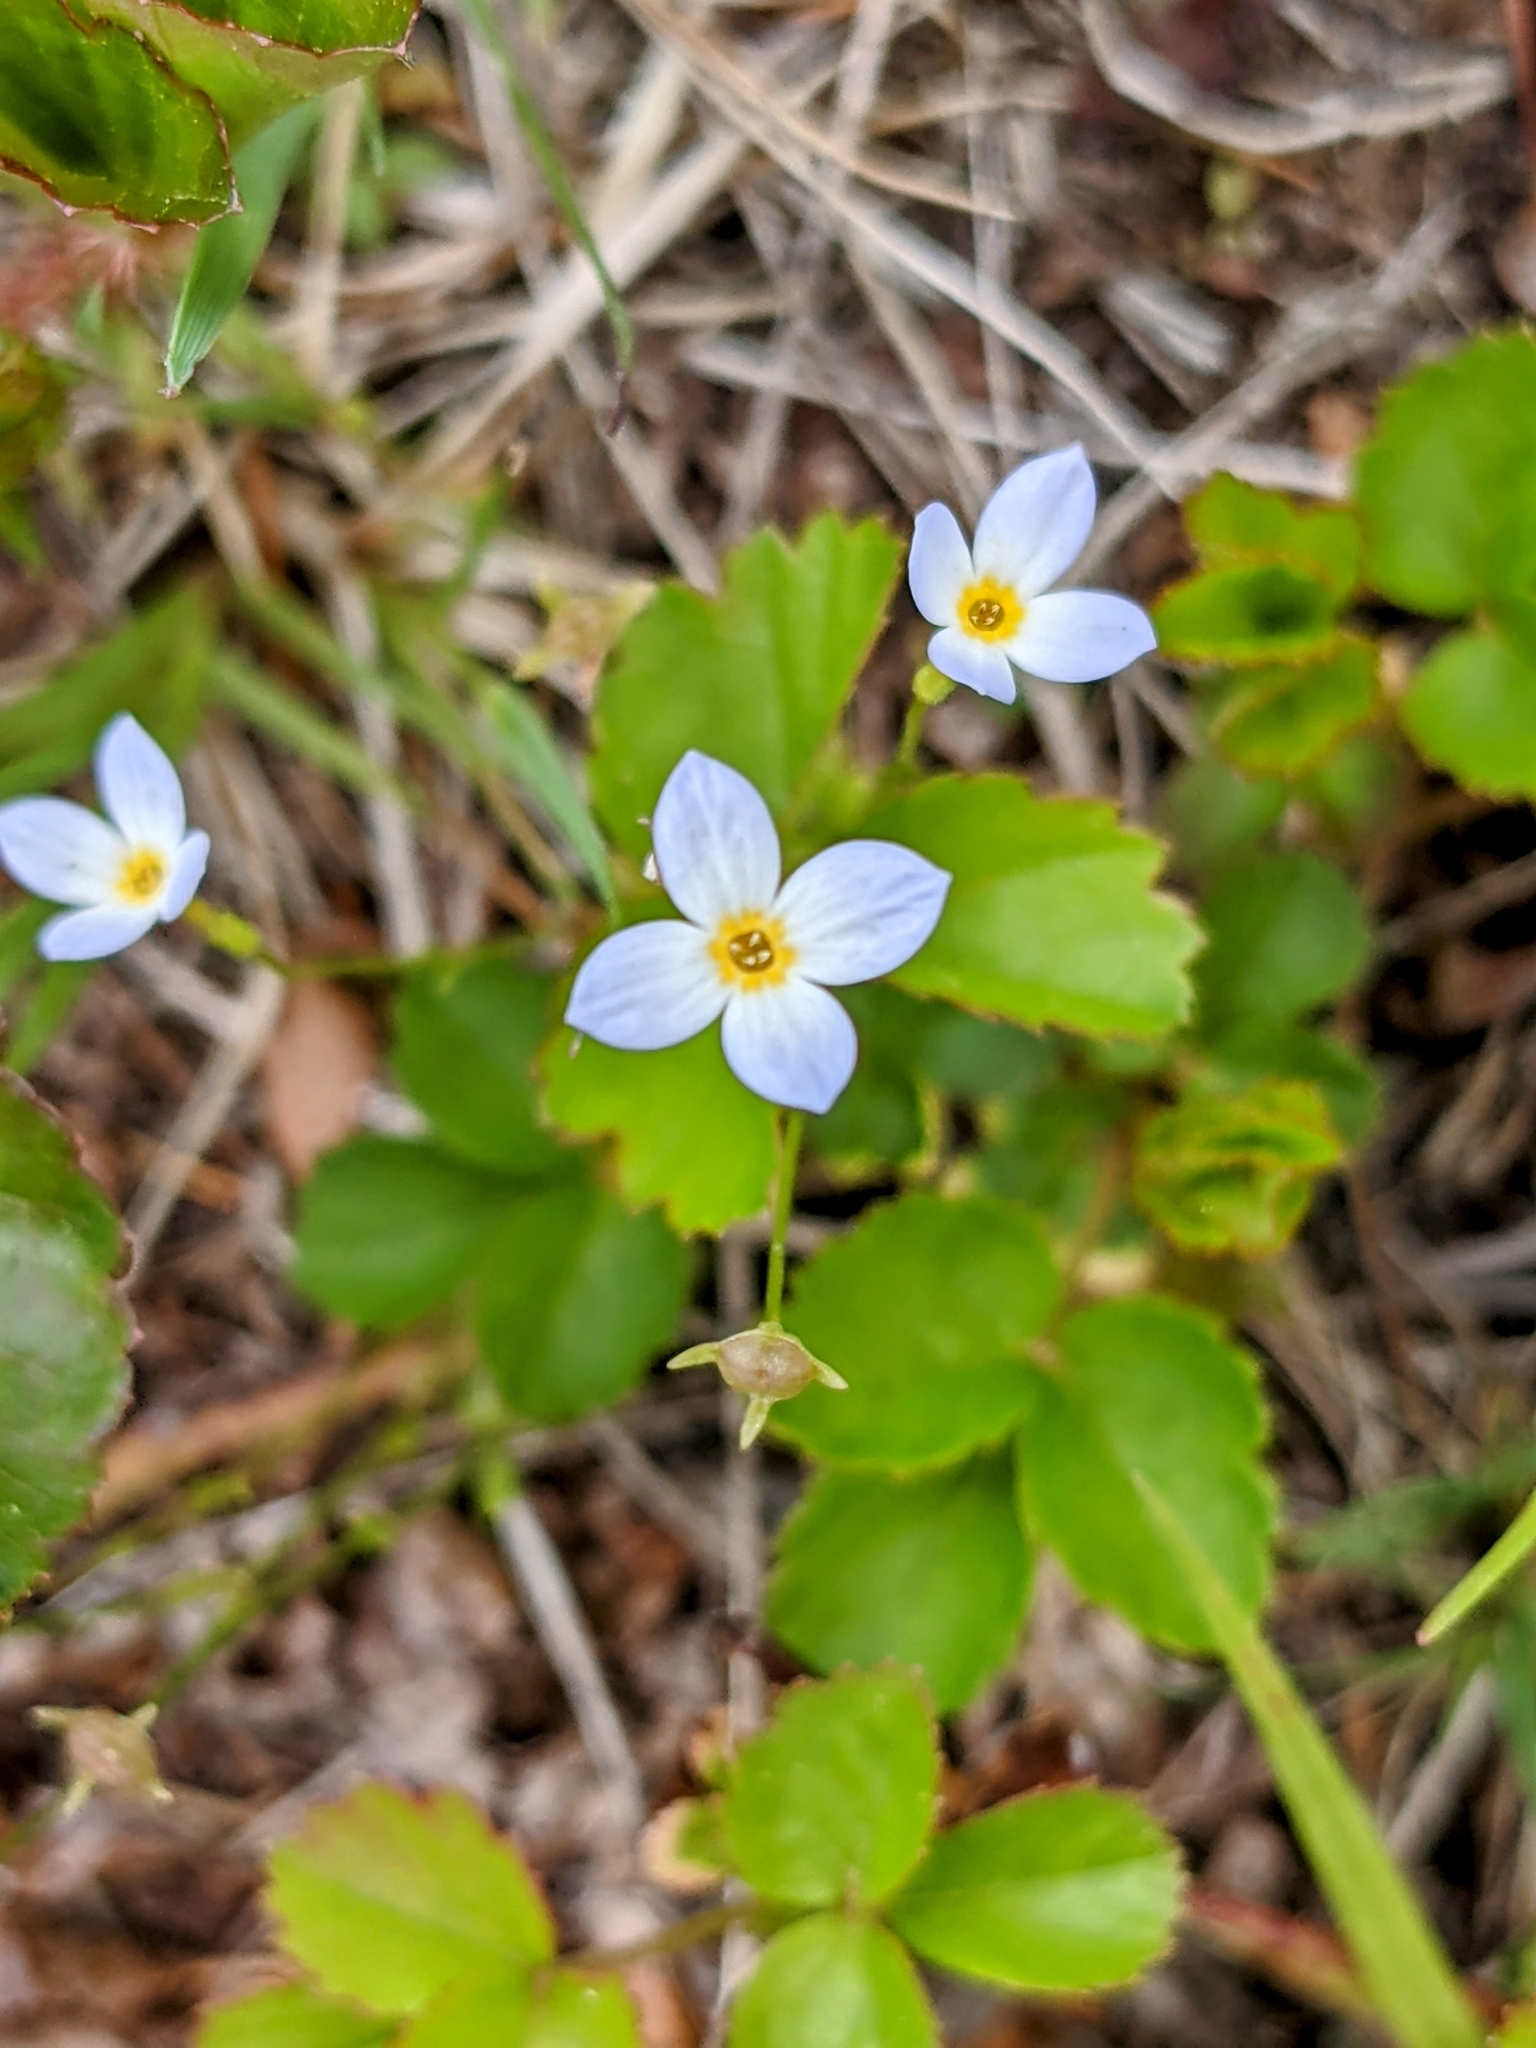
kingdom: Plantae
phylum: Tracheophyta
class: Magnoliopsida
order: Gentianales
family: Rubiaceae
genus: Houstonia
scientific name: Houstonia caerulea
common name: Bluets
